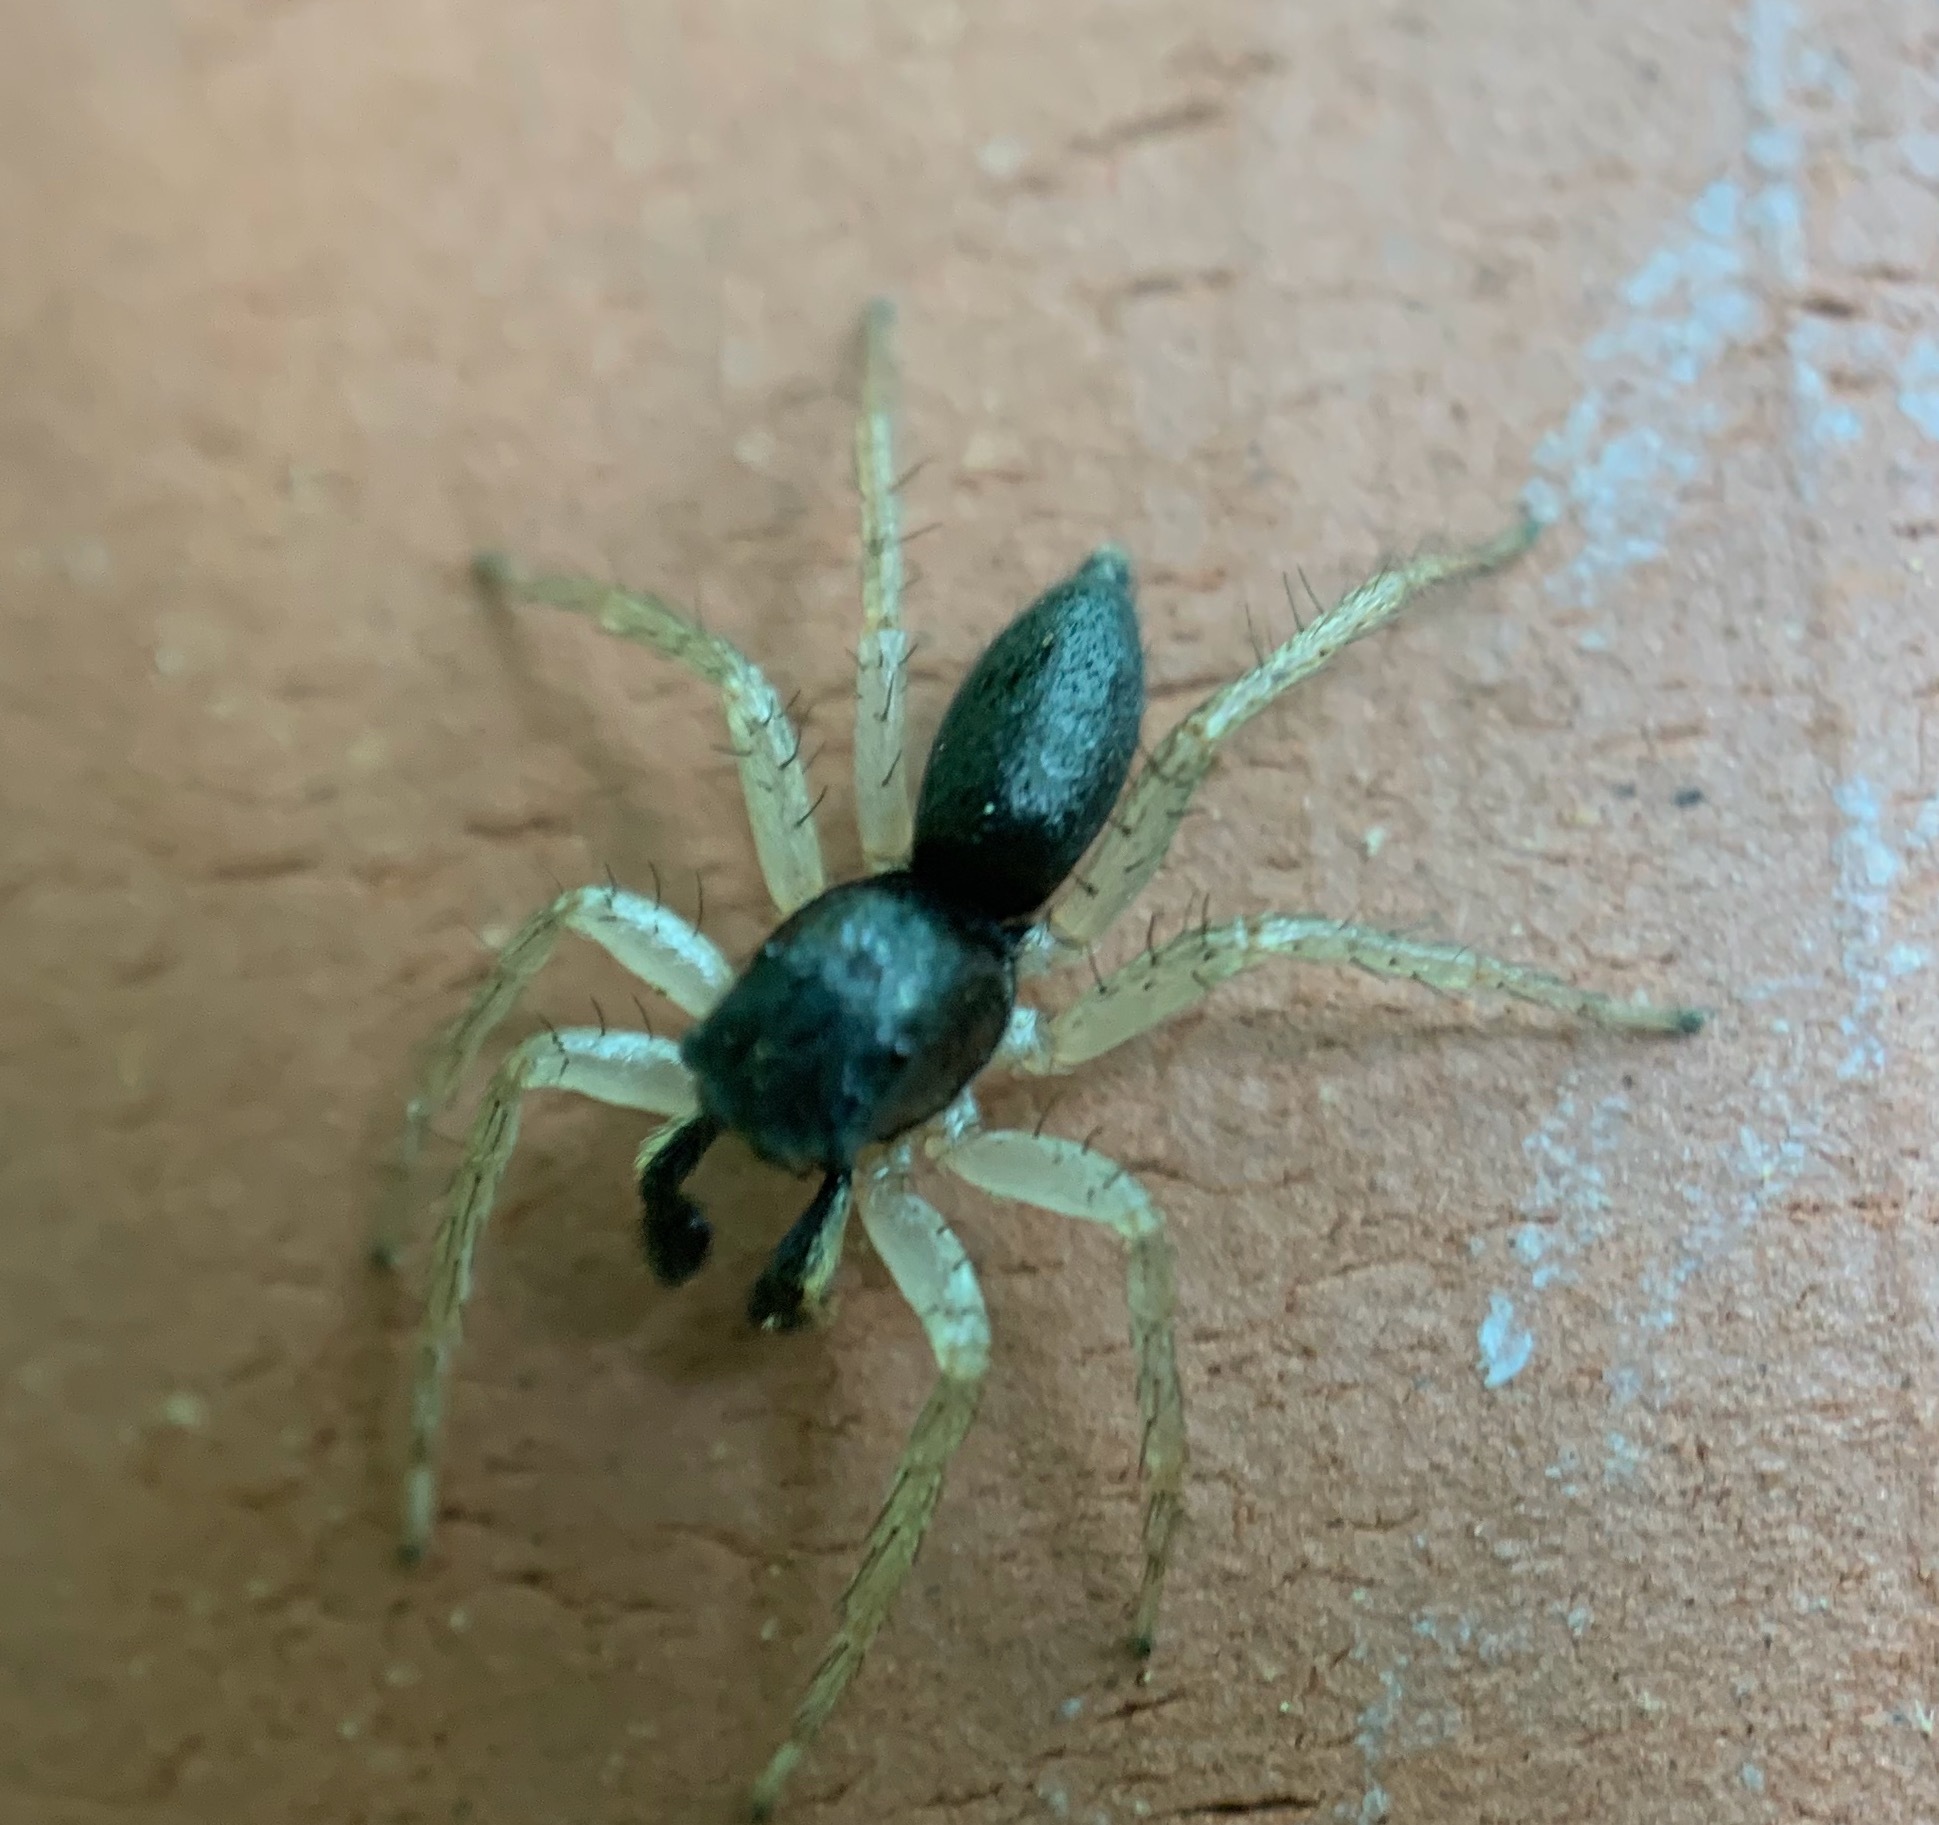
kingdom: Animalia
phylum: Arthropoda
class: Arachnida
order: Araneae
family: Salticidae
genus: Maevia
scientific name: Maevia inclemens
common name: Dimorphic jumper
